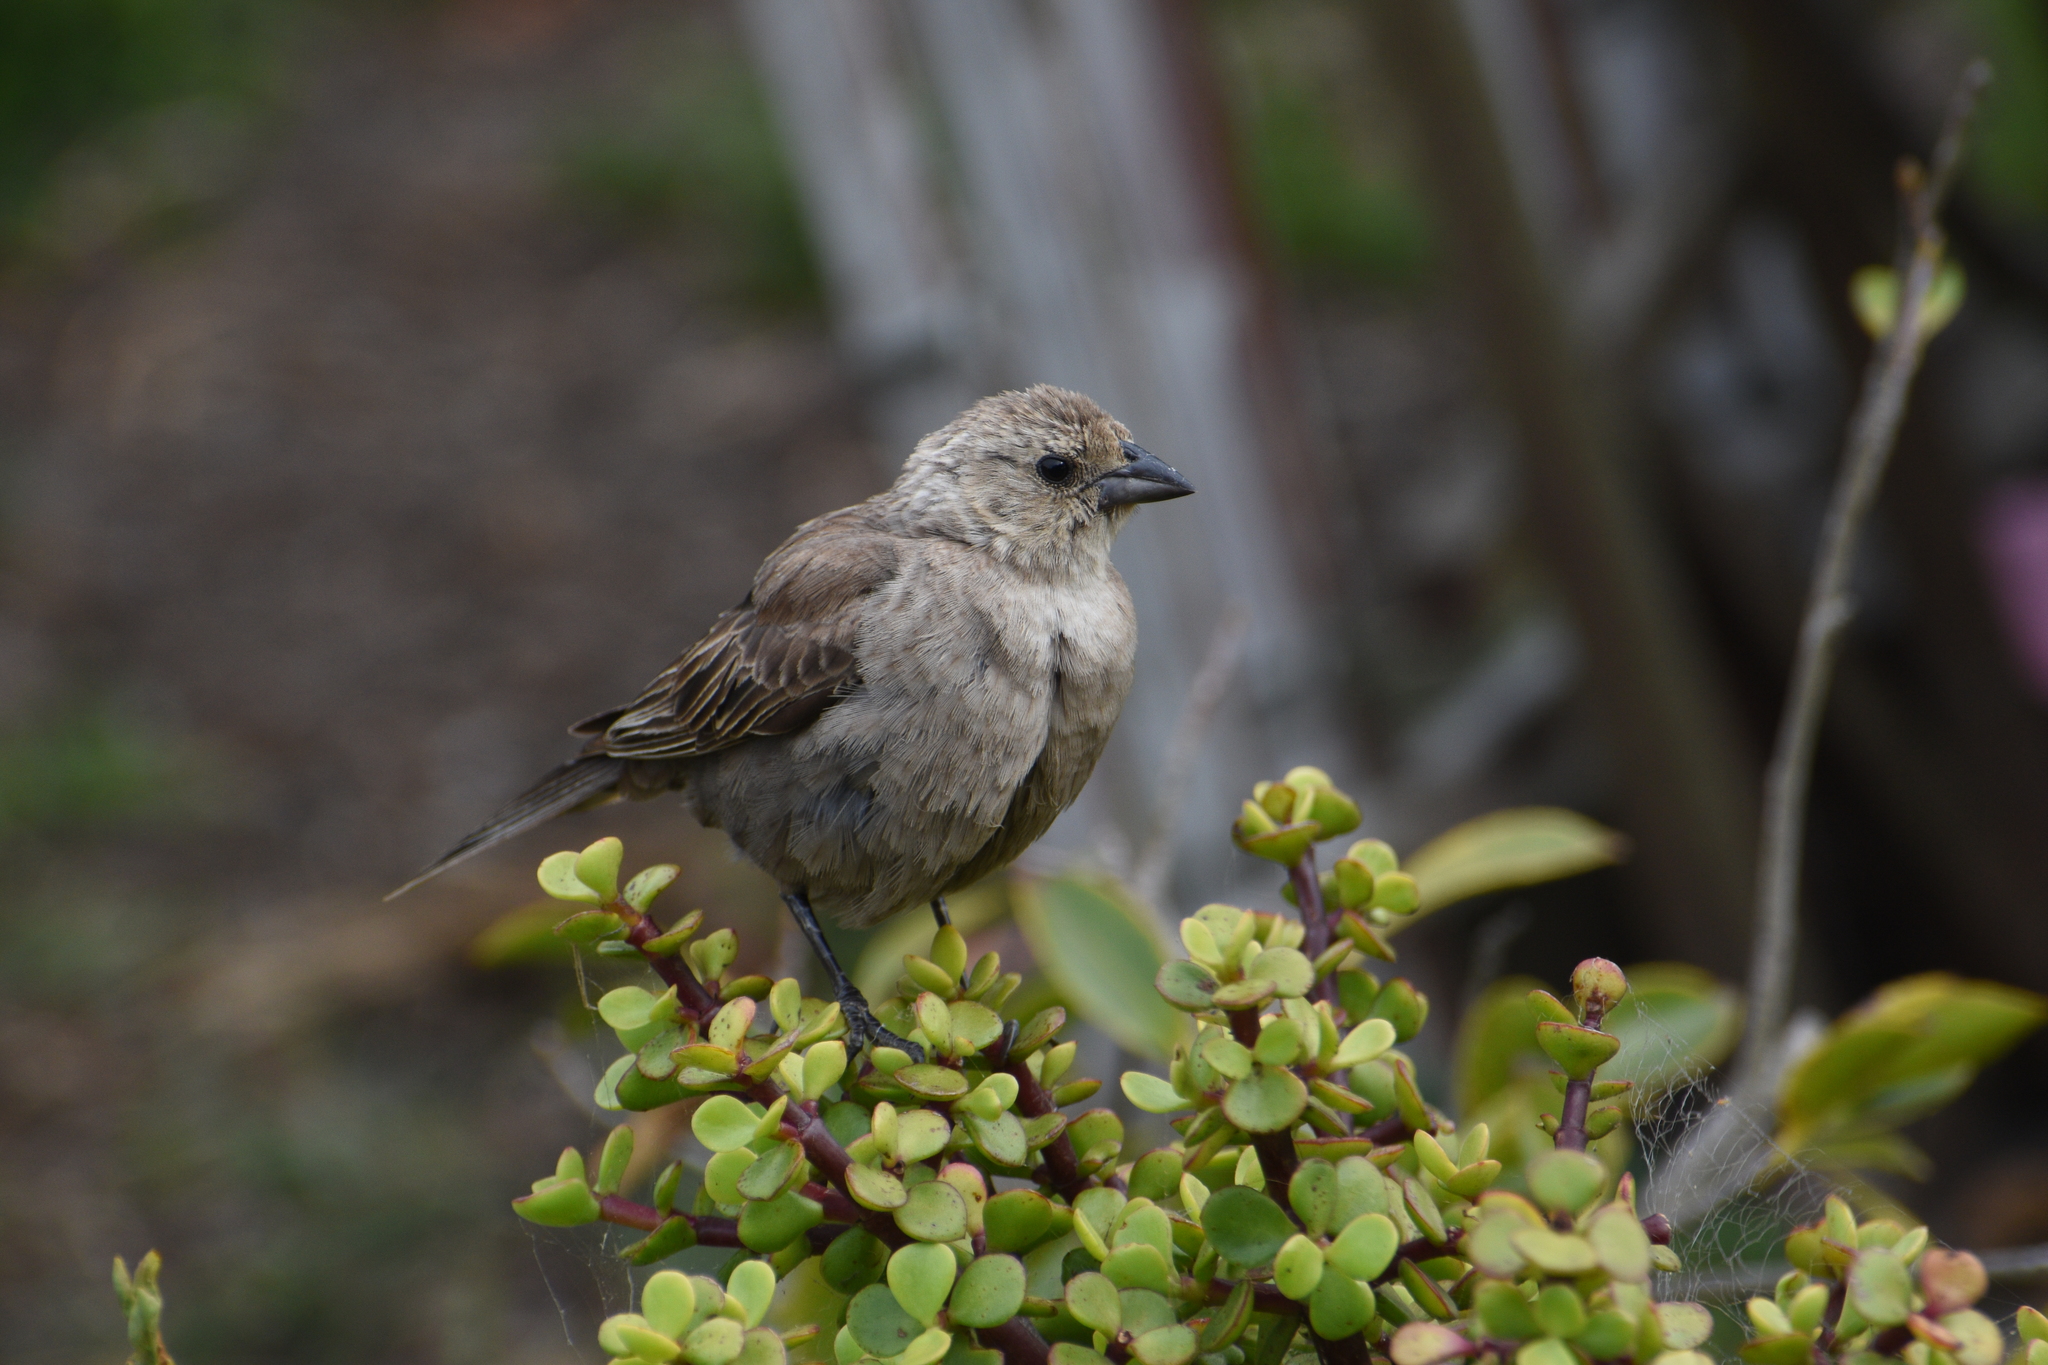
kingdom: Animalia
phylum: Chordata
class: Aves
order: Passeriformes
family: Icteridae
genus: Molothrus
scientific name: Molothrus ater
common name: Brown-headed cowbird
